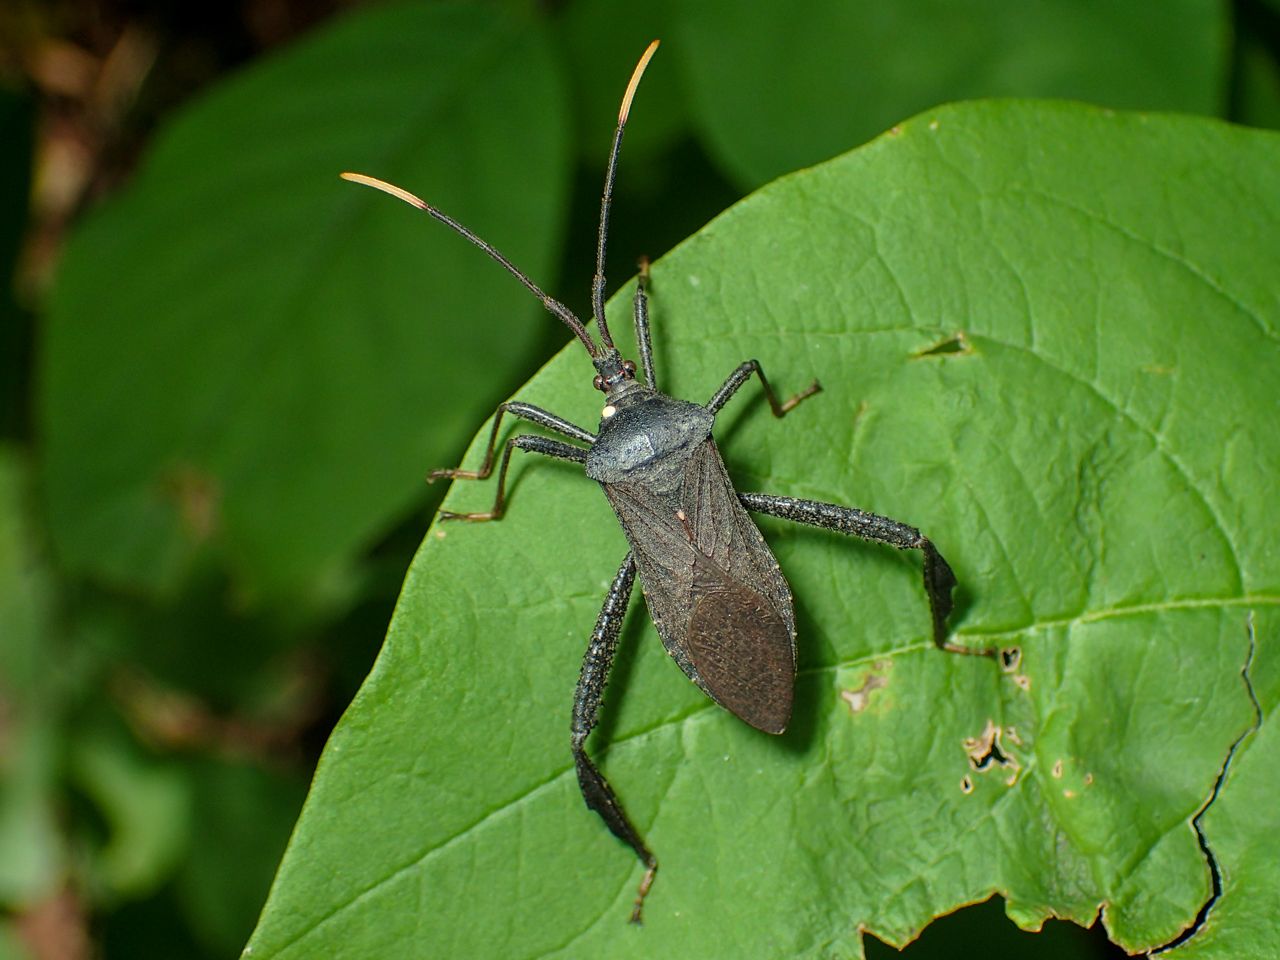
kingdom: Animalia
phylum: Arthropoda
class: Insecta
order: Hemiptera
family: Coreidae
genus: Acanthocephala
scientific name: Acanthocephala terminalis
